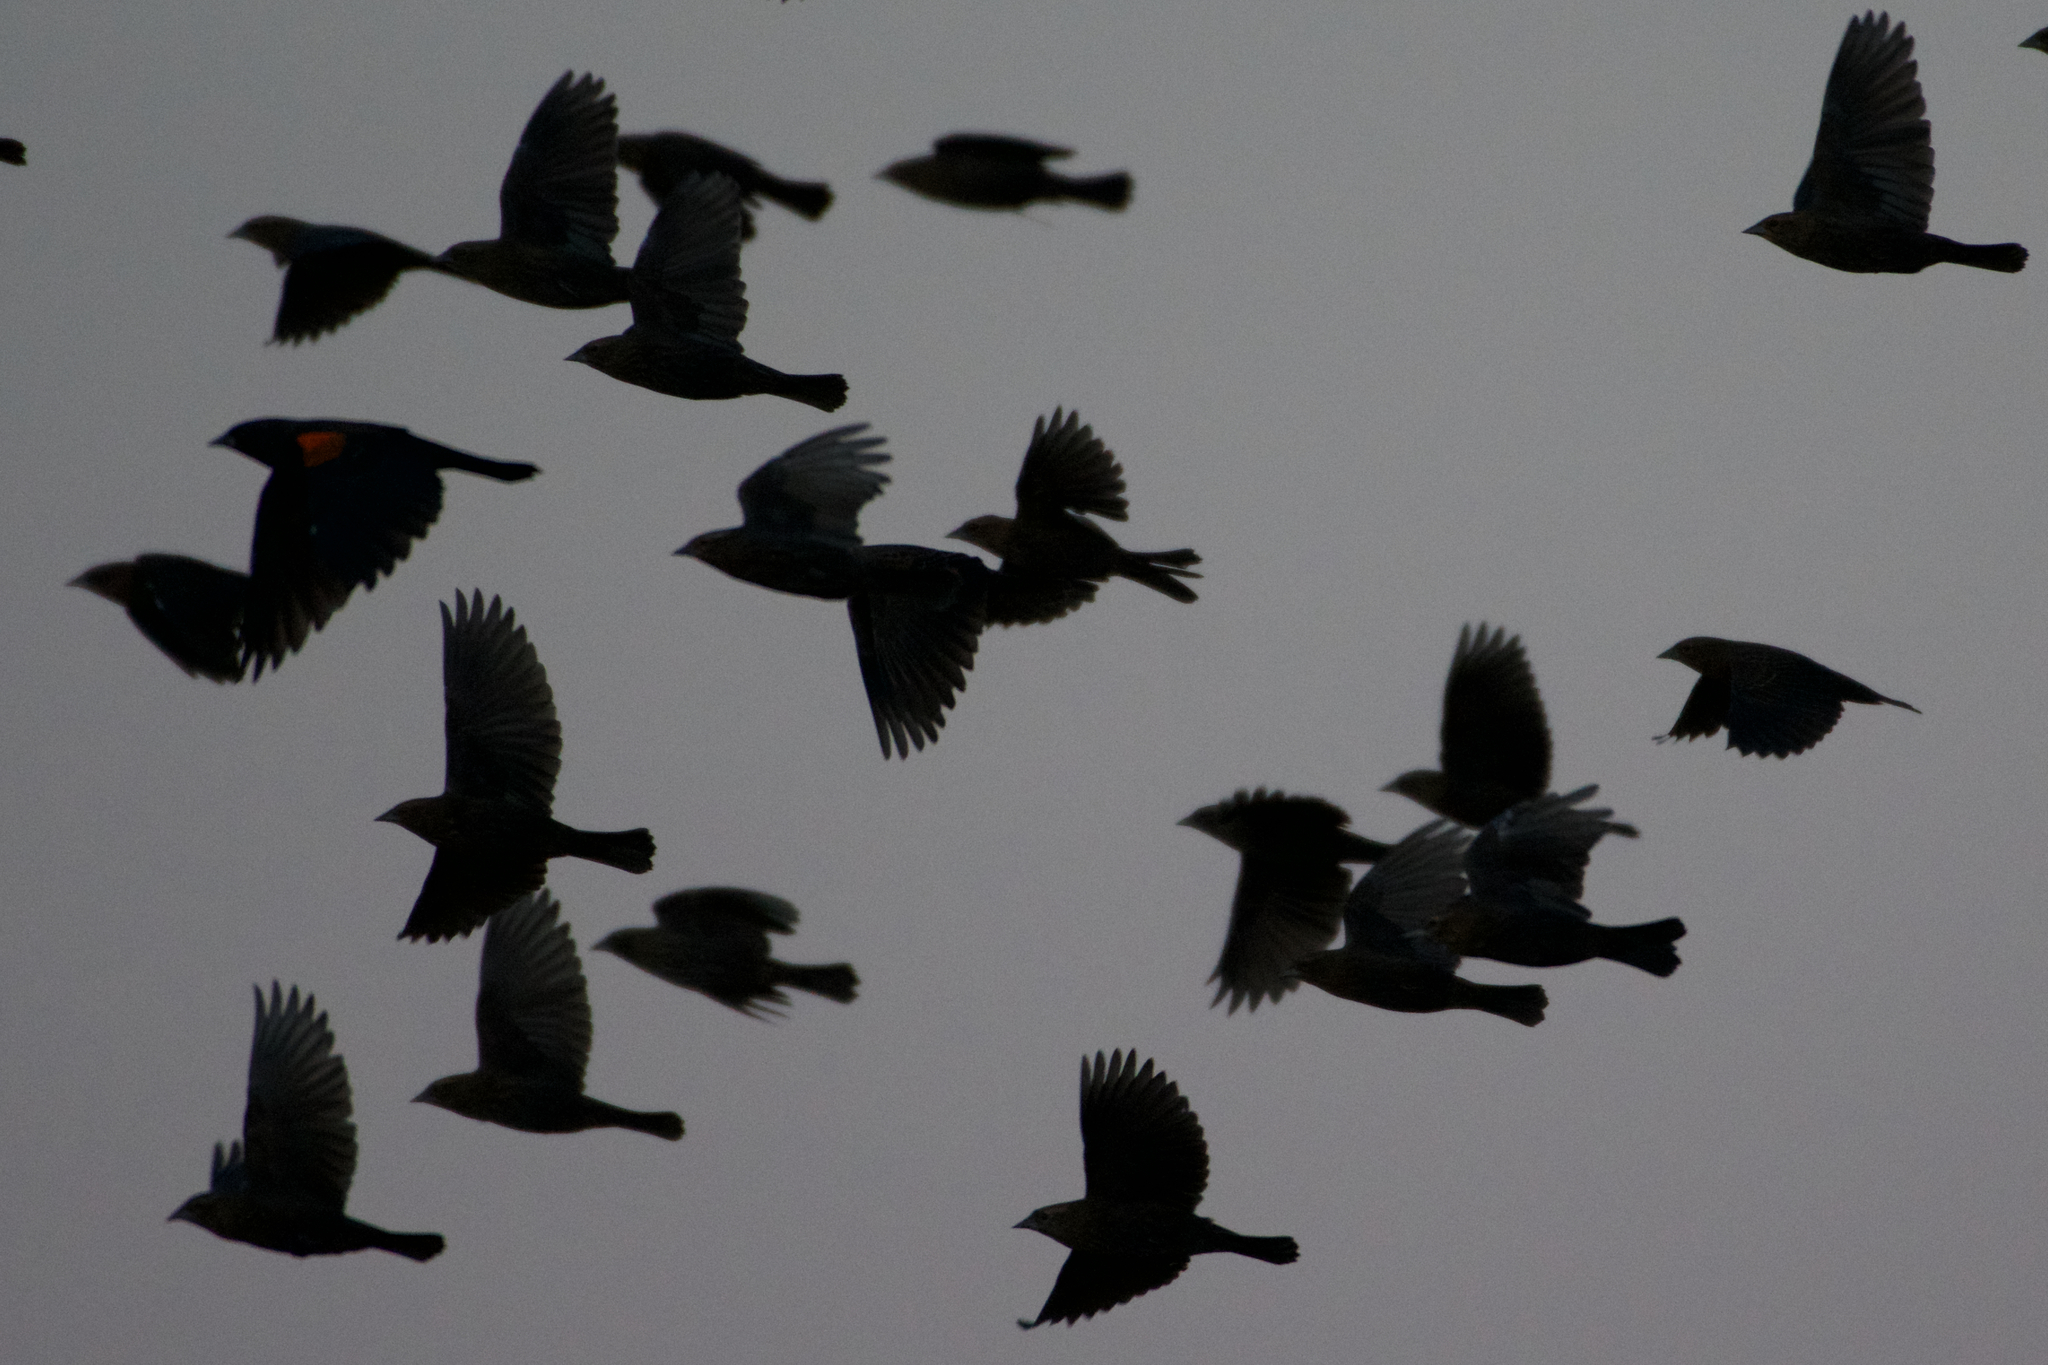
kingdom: Animalia
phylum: Chordata
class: Aves
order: Passeriformes
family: Icteridae
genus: Agelaius
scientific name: Agelaius phoeniceus
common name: Red-winged blackbird
